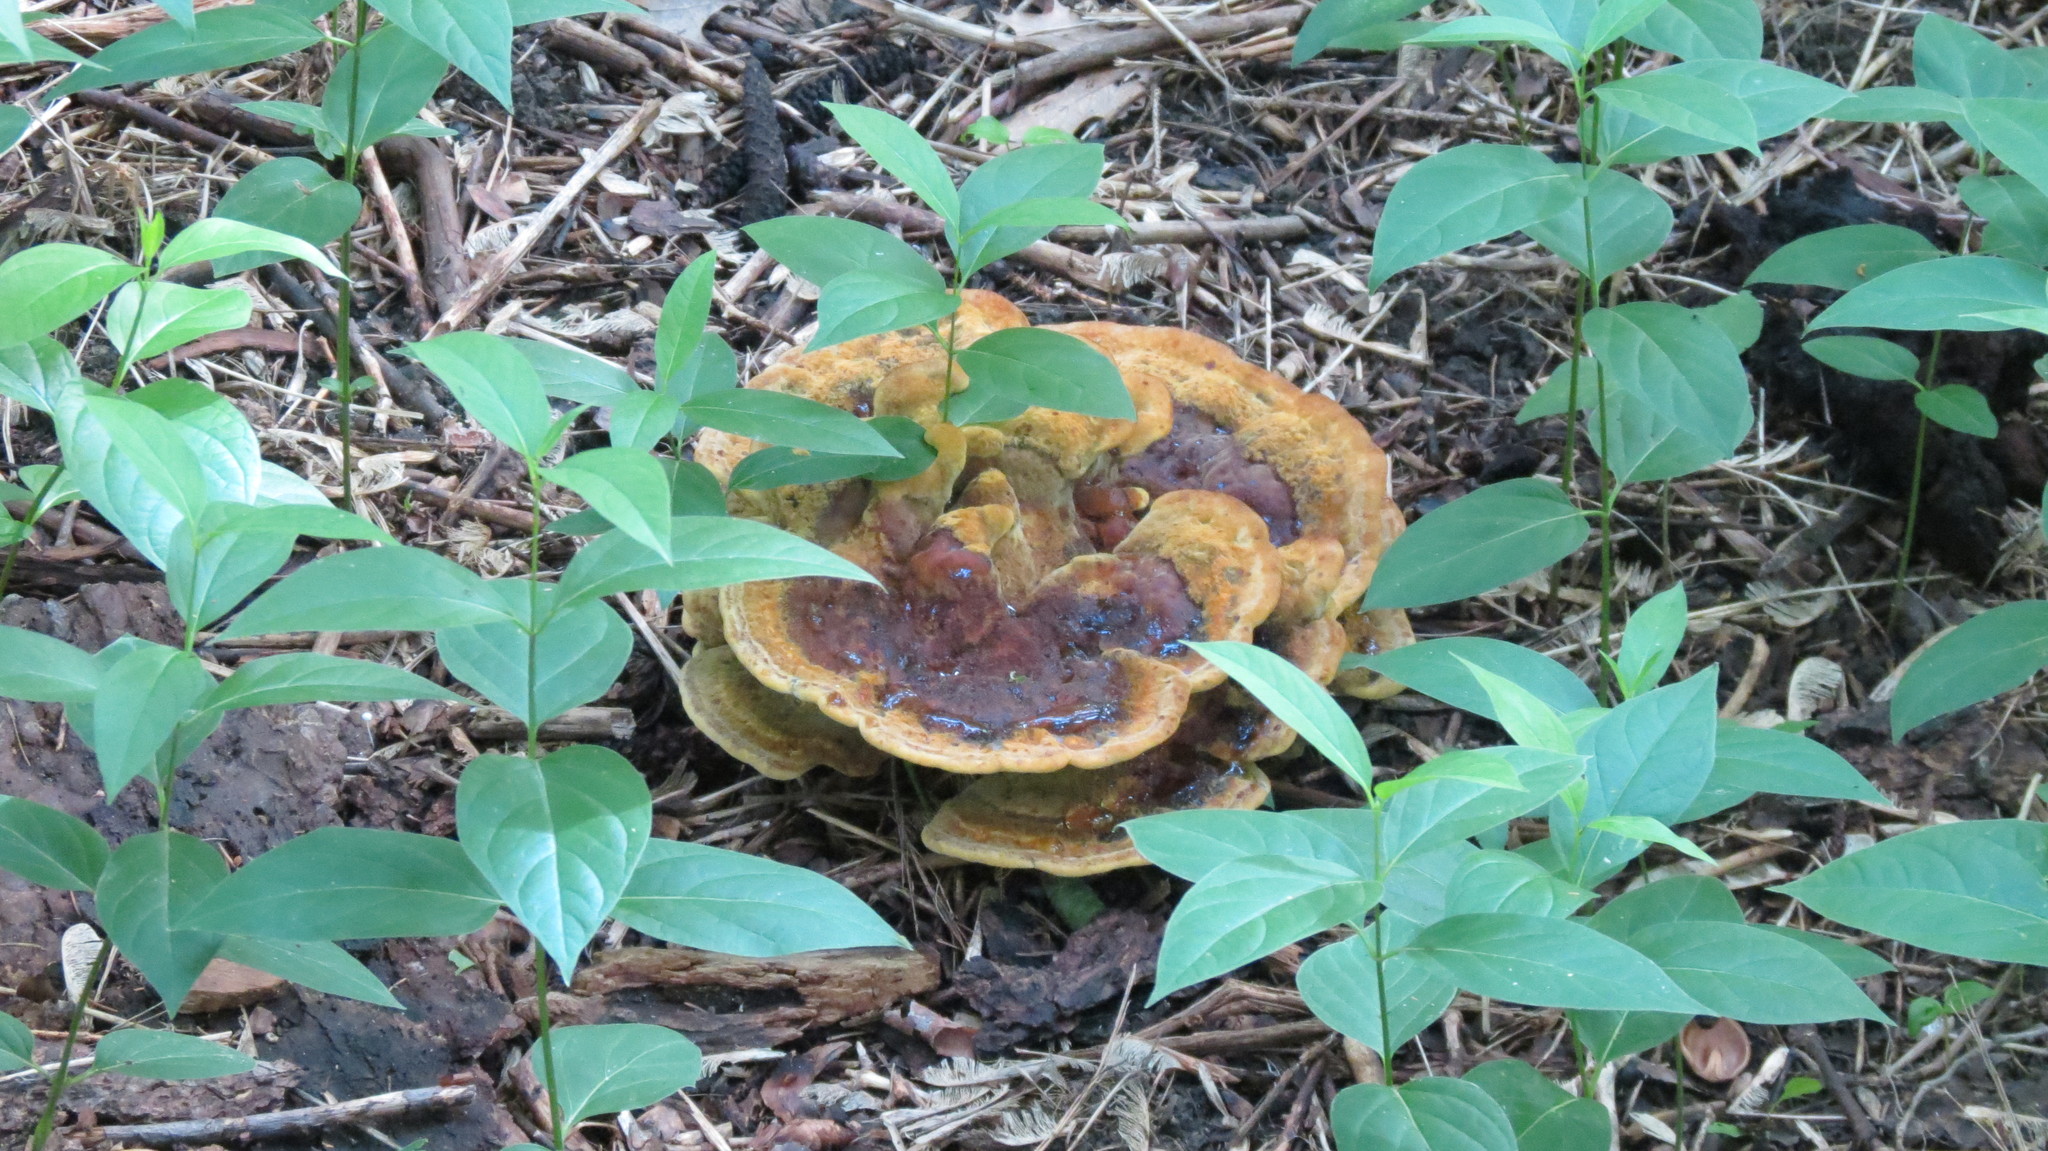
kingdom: Fungi
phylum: Basidiomycota
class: Agaricomycetes
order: Polyporales
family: Laetiporaceae
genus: Phaeolus
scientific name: Phaeolus schweinitzii
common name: Dyer's mazegill
